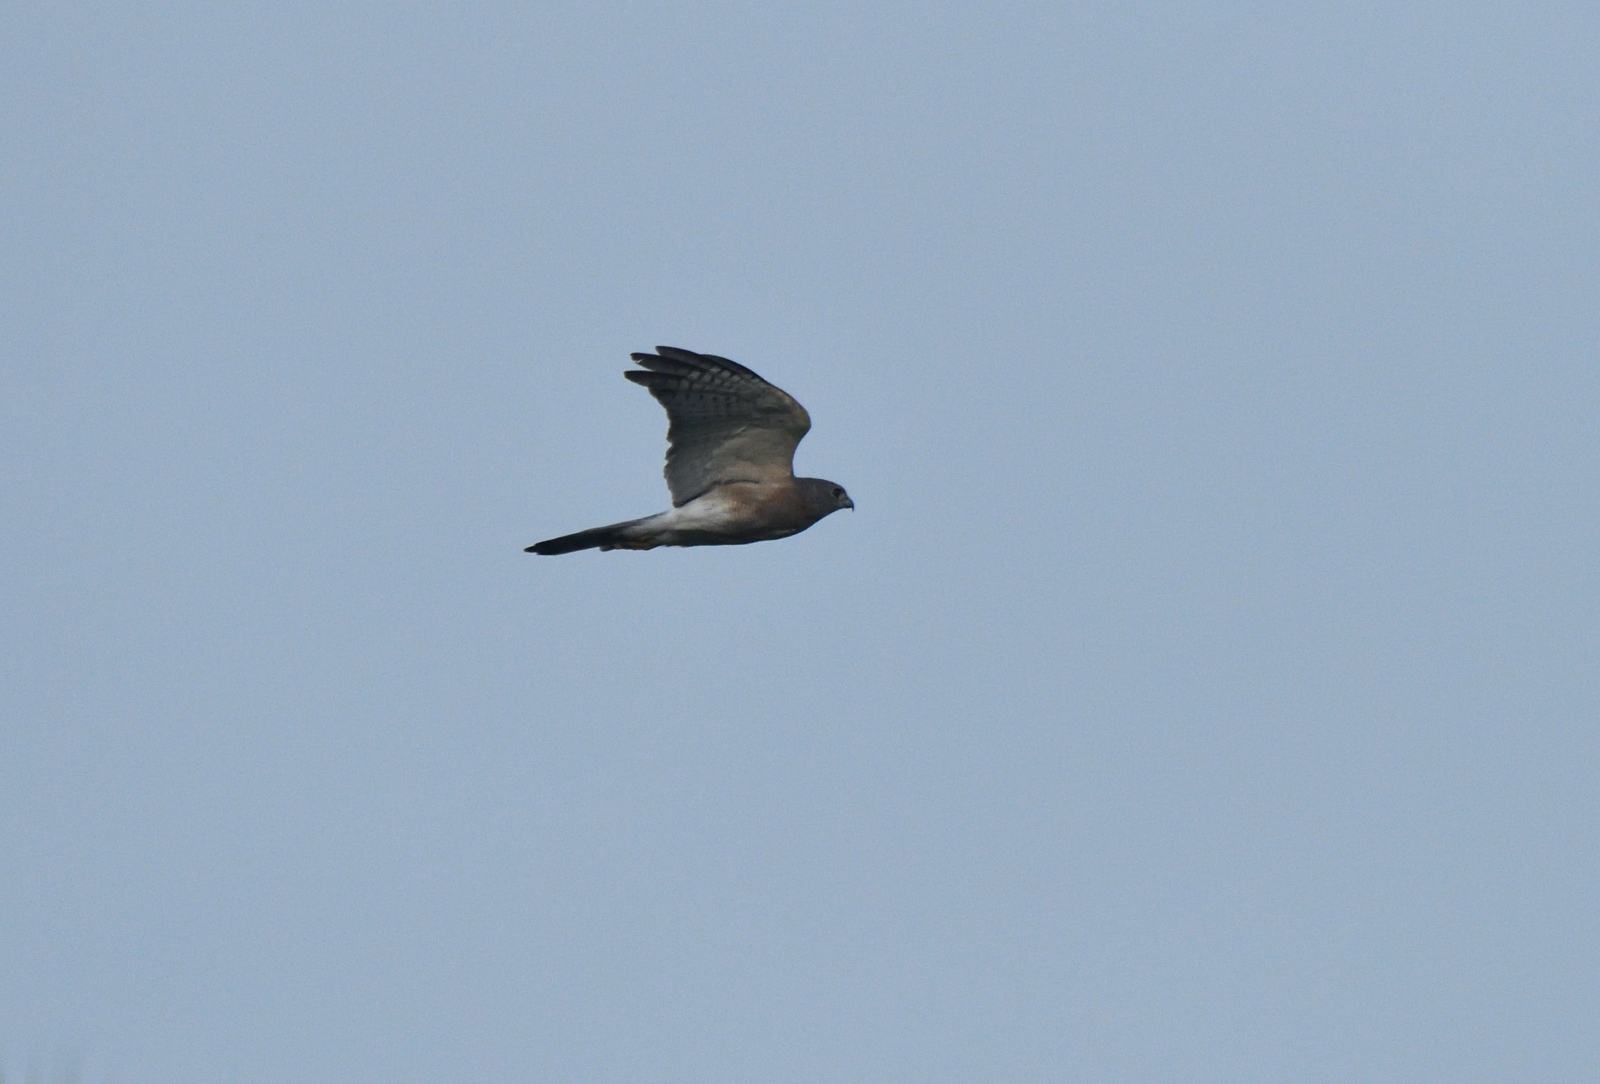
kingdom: Animalia
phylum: Chordata
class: Aves
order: Accipitriformes
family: Accipitridae
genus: Accipiter
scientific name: Accipiter badius
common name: Shikra
